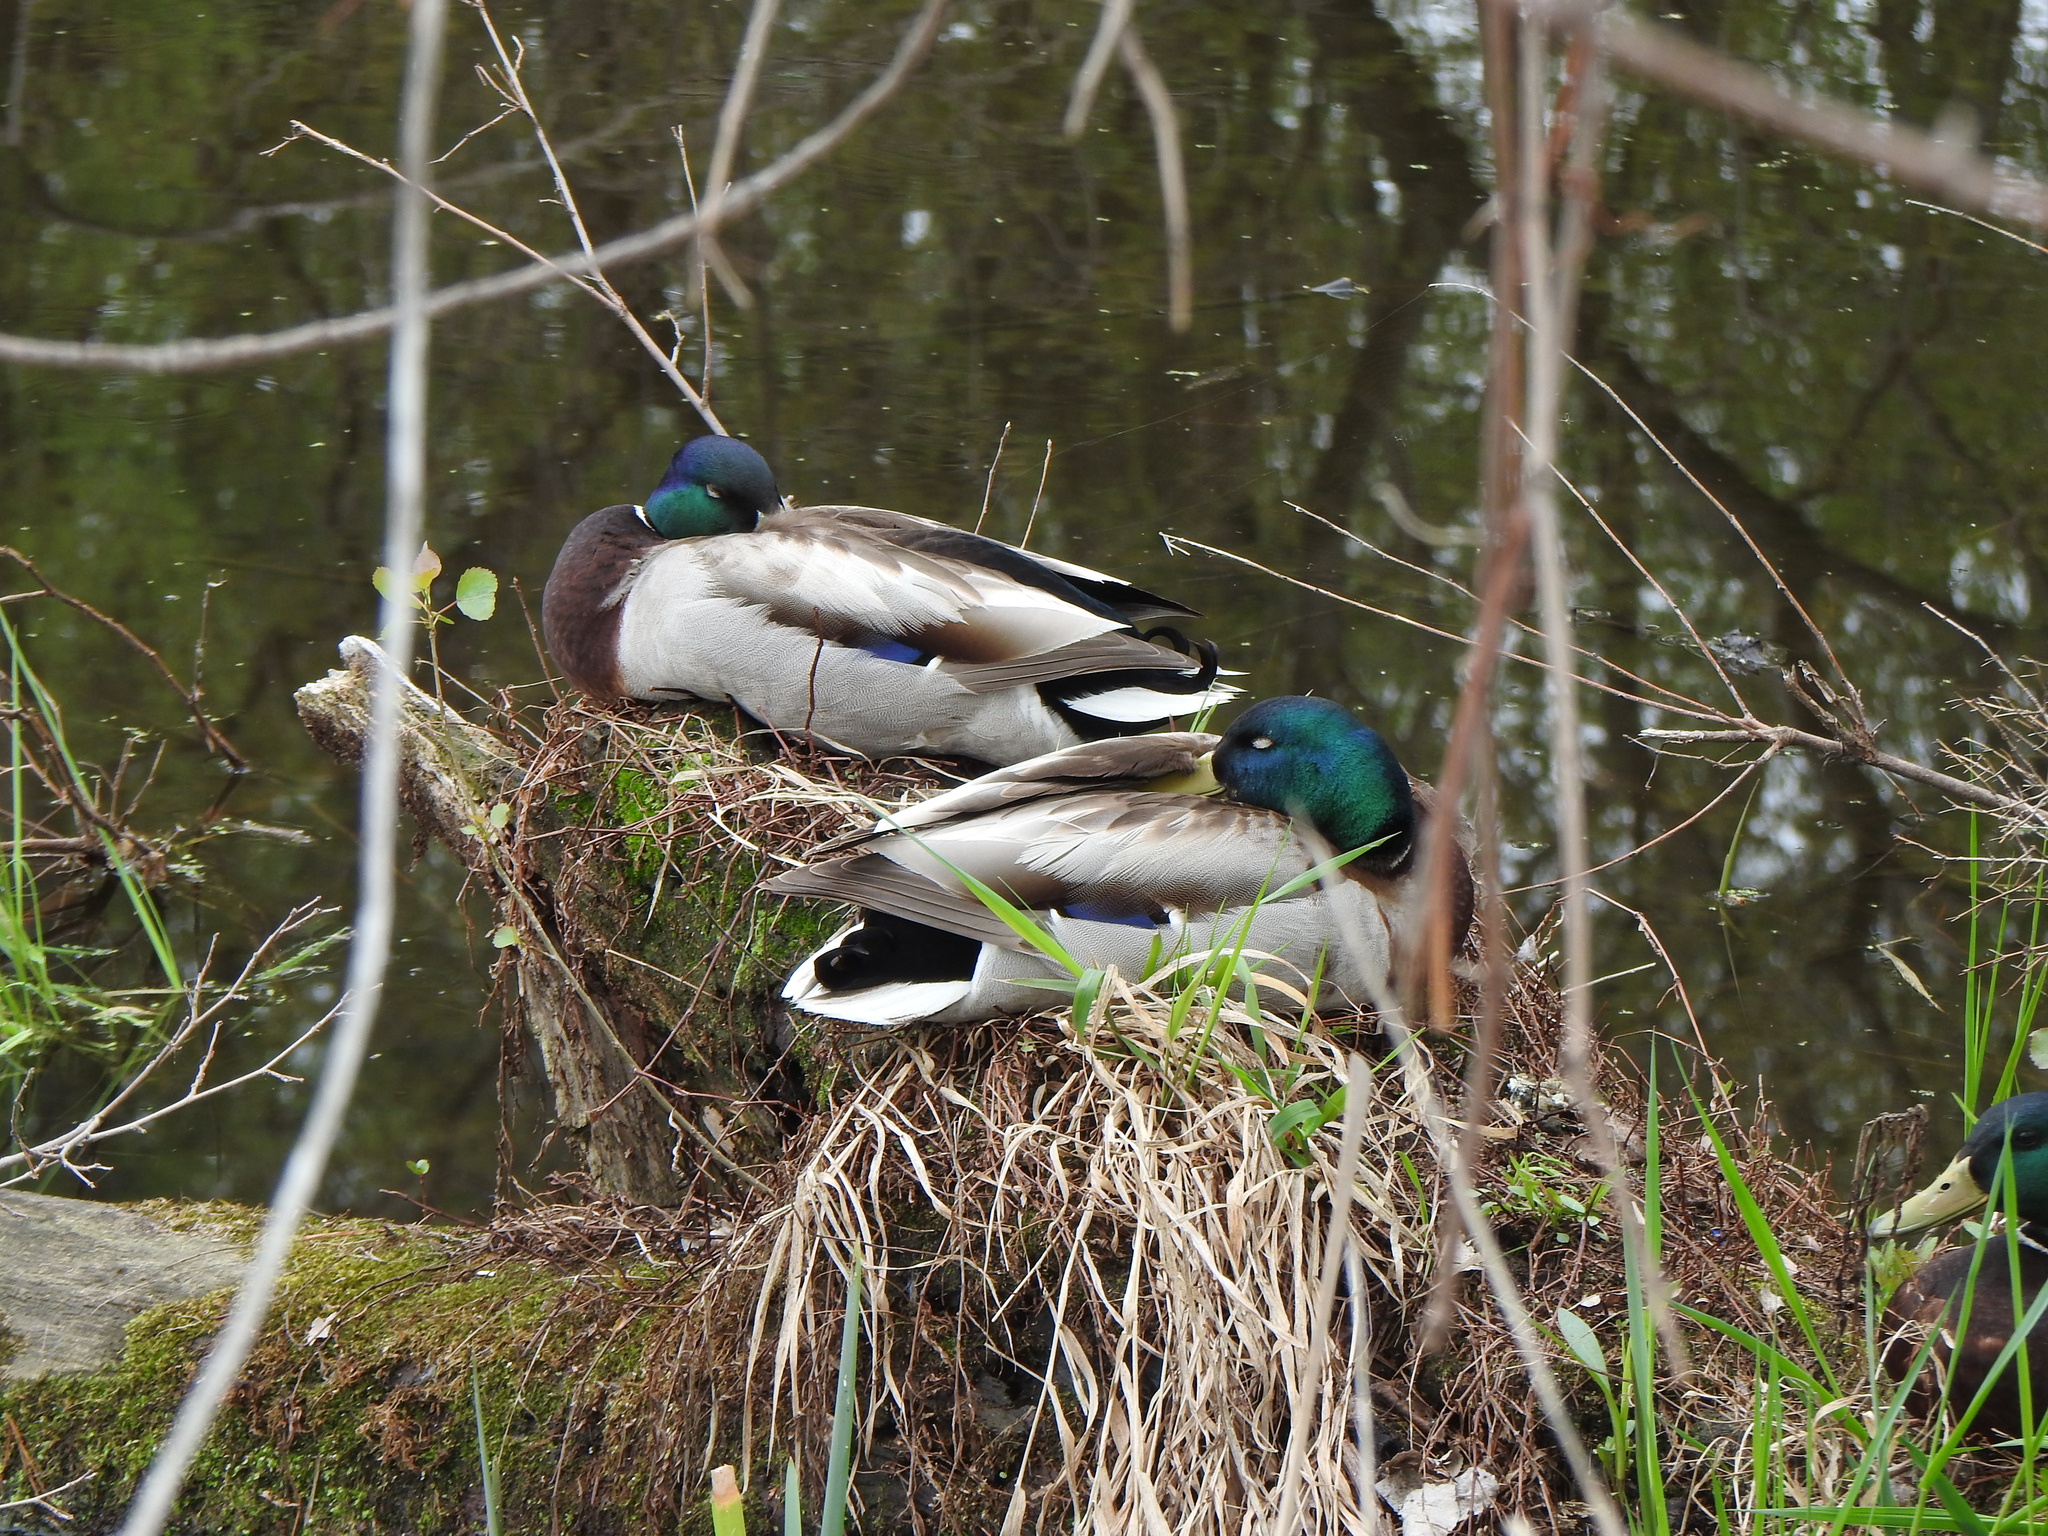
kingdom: Animalia
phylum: Chordata
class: Aves
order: Anseriformes
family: Anatidae
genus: Anas
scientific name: Anas platyrhynchos
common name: Mallard
